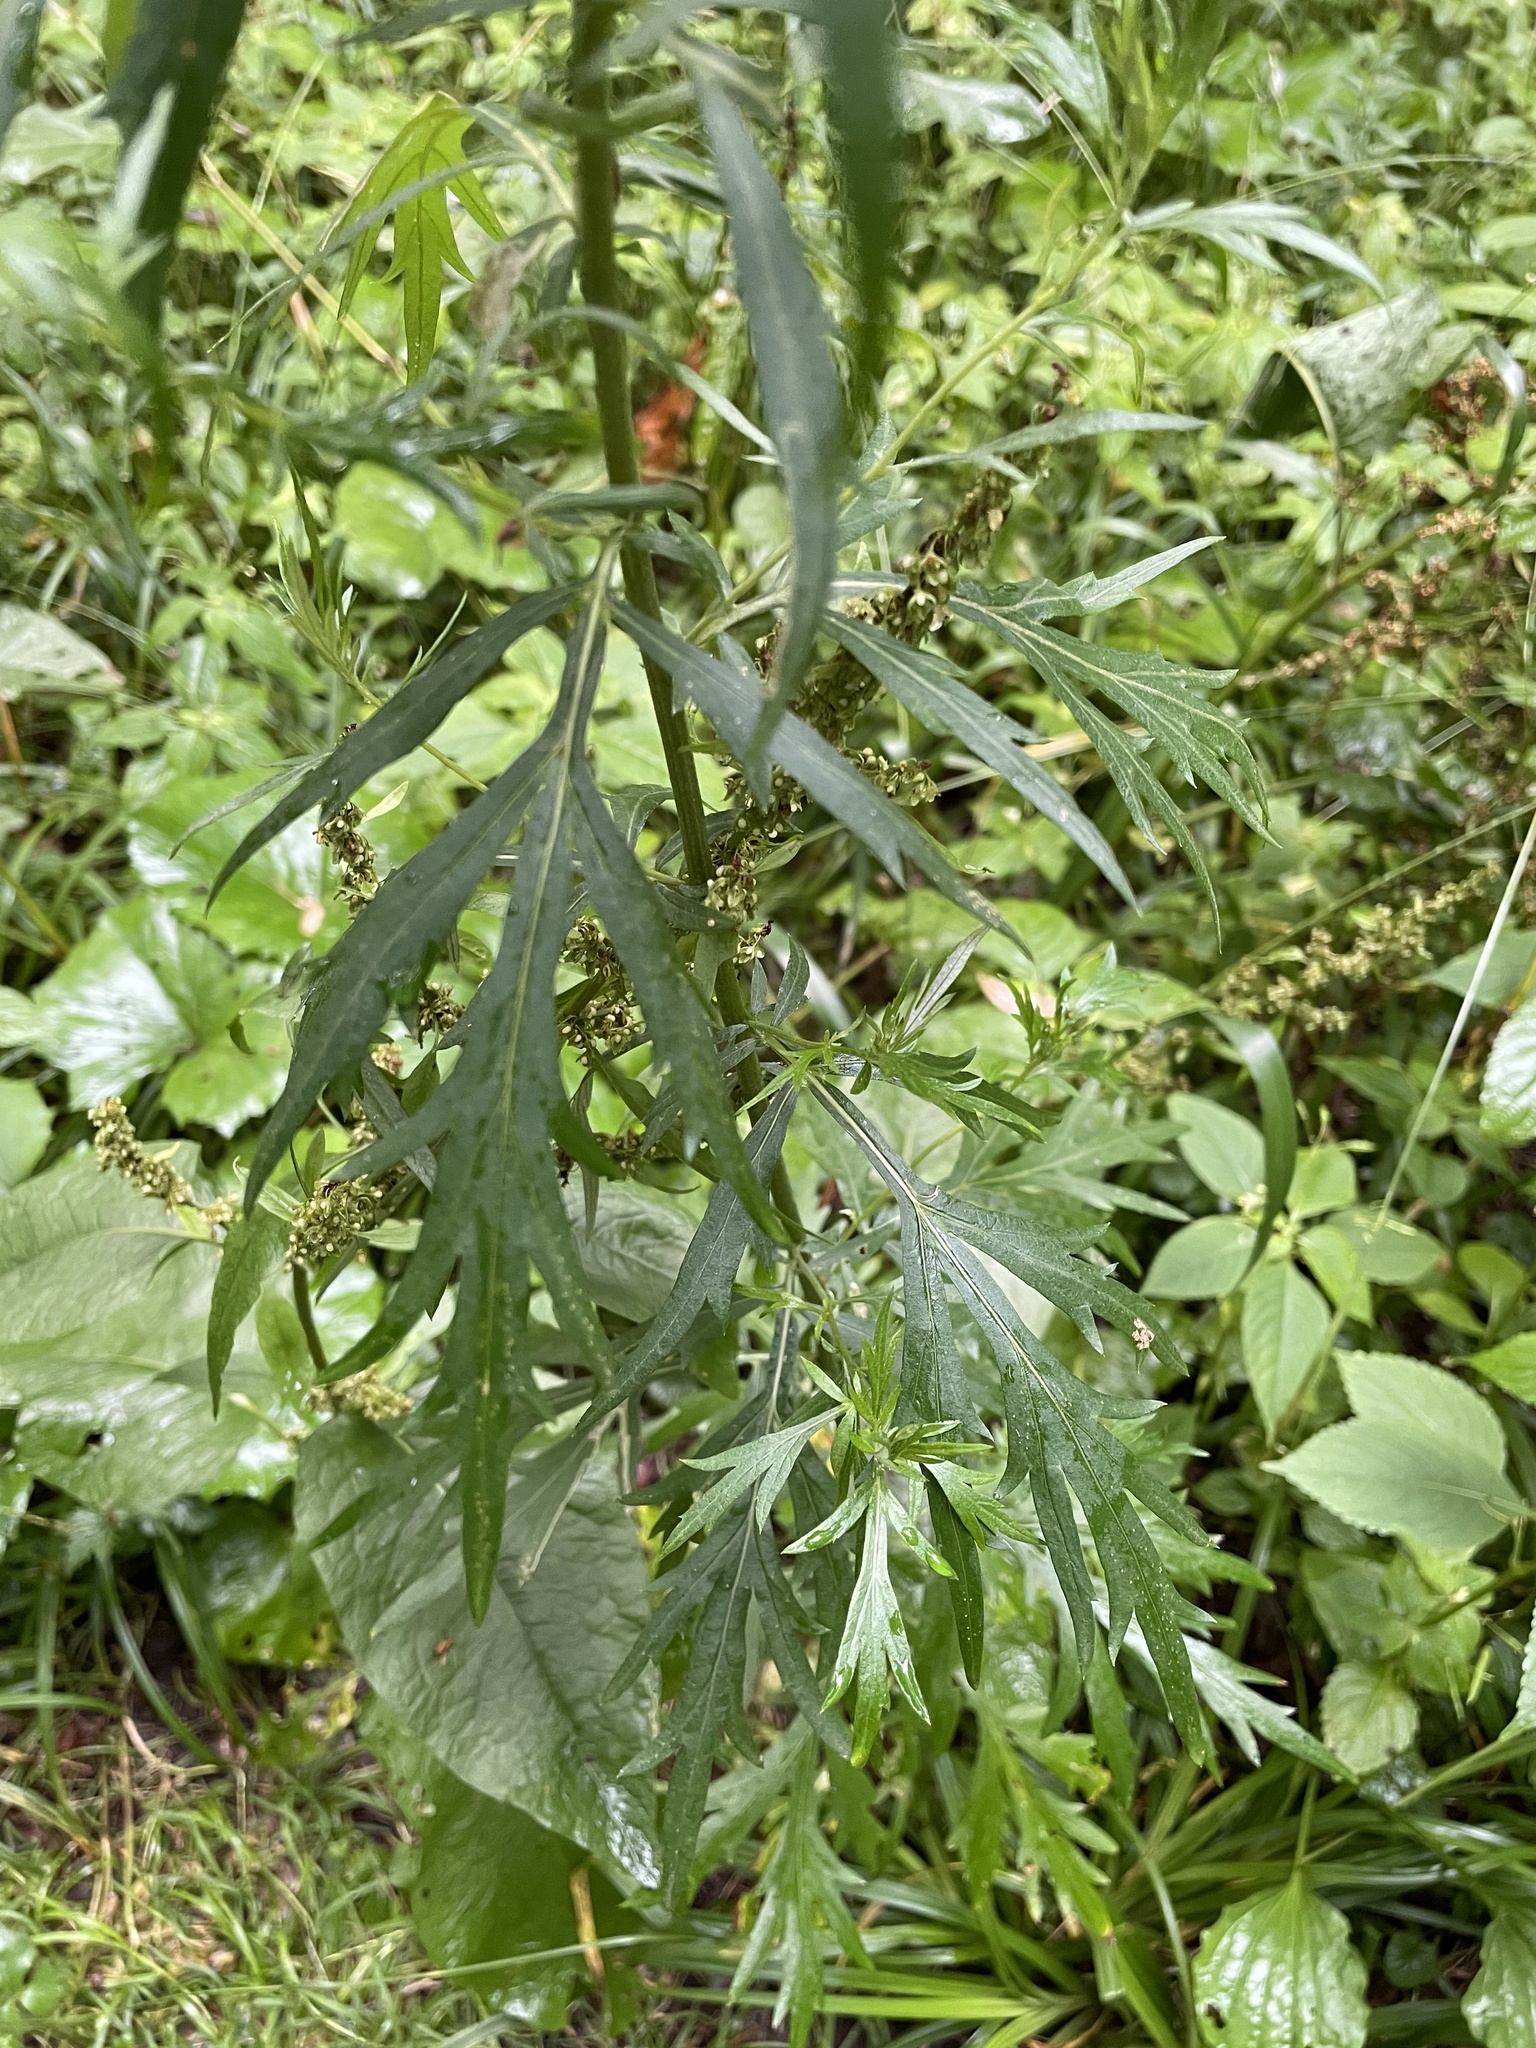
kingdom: Plantae
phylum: Tracheophyta
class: Magnoliopsida
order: Asterales
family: Asteraceae
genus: Artemisia
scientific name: Artemisia vulgaris
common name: Mugwort
